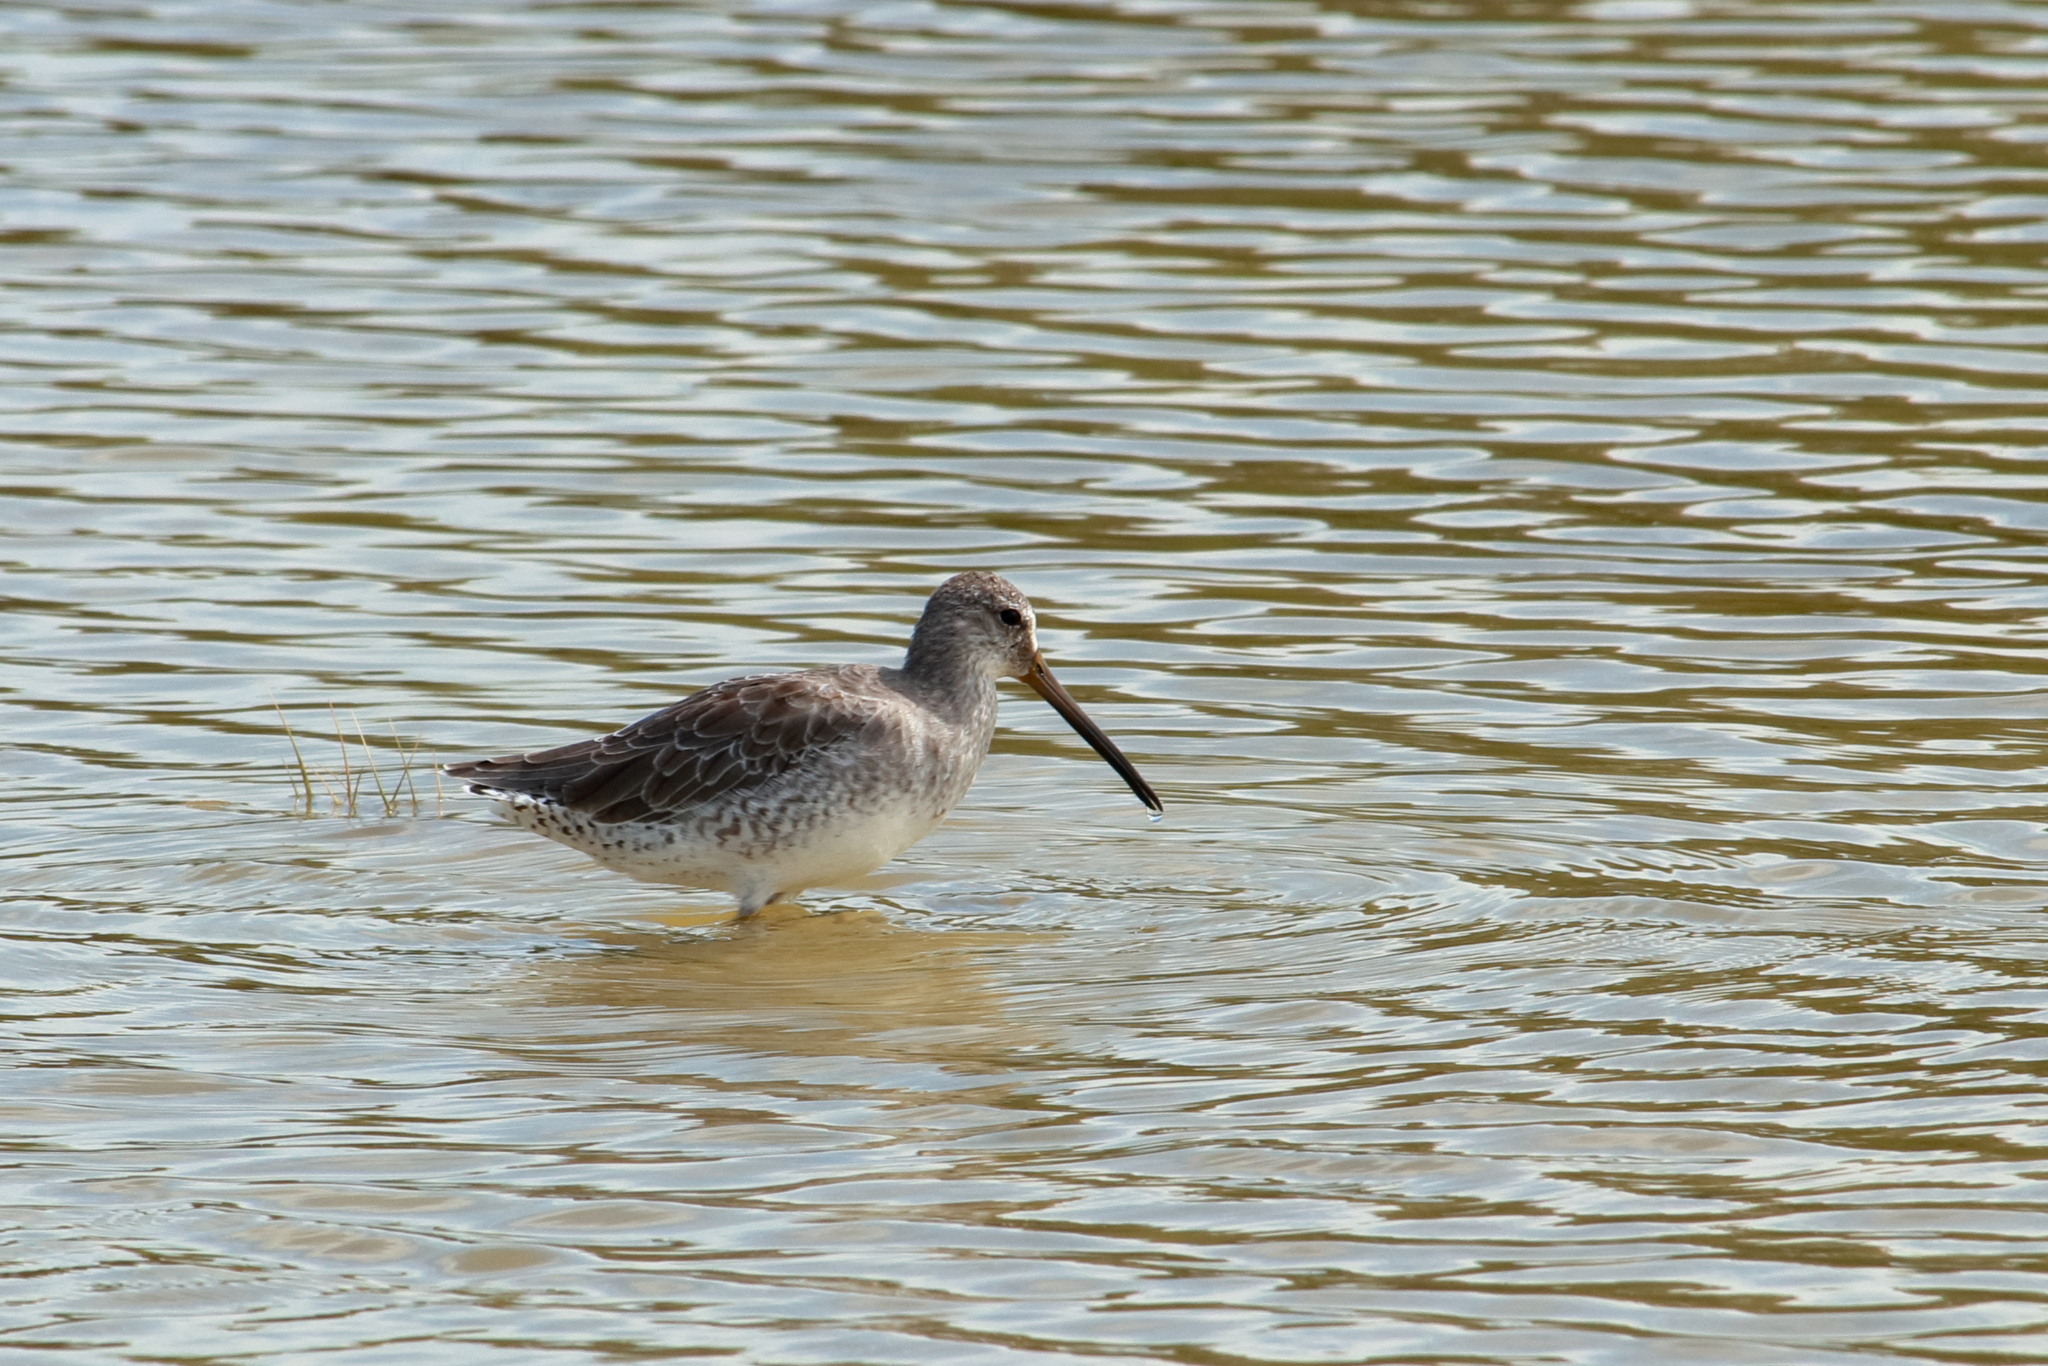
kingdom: Animalia
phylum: Chordata
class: Aves
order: Charadriiformes
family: Scolopacidae
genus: Limnodromus
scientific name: Limnodromus griseus
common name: Short-billed dowitcher
